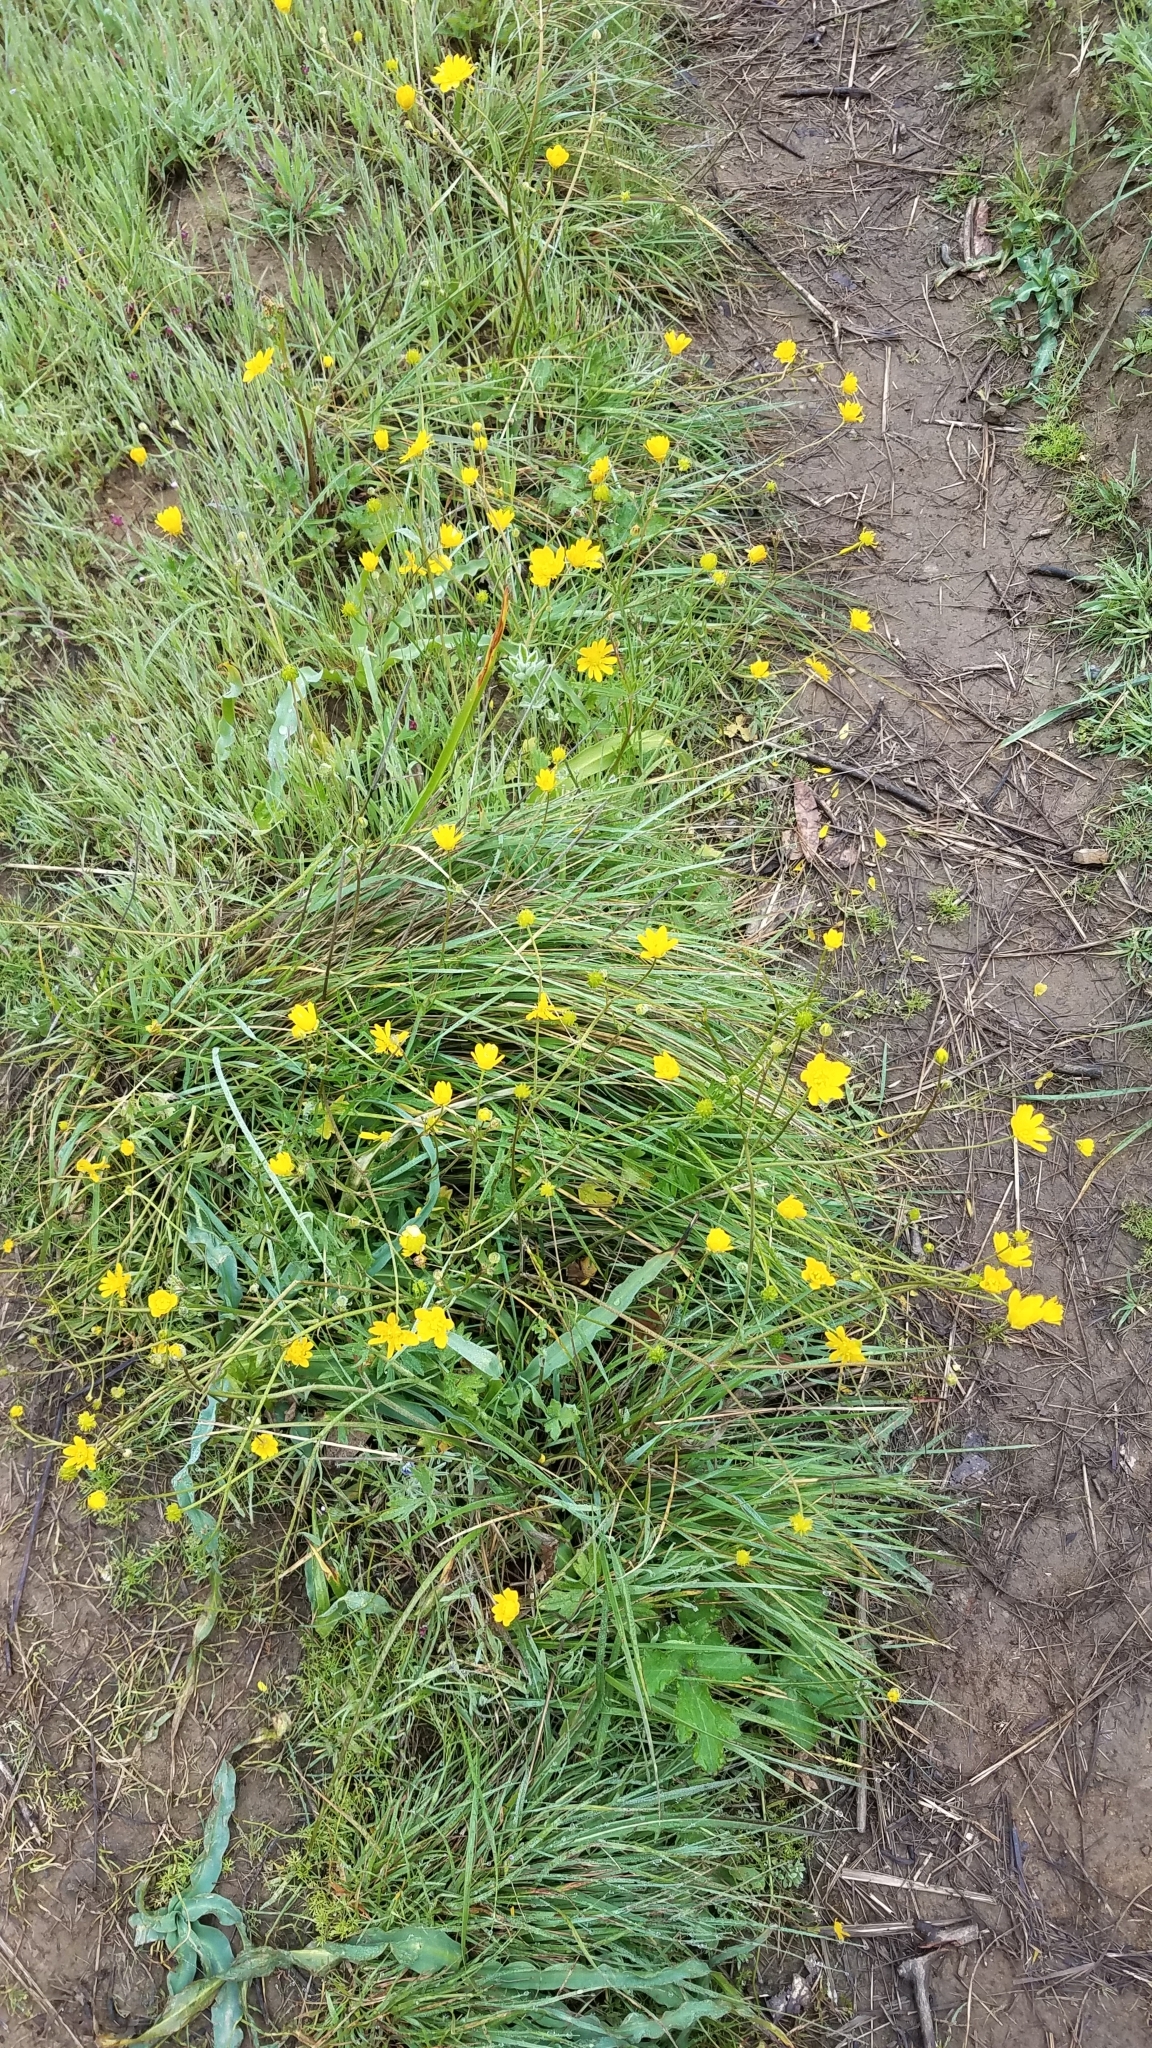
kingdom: Plantae
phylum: Tracheophyta
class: Magnoliopsida
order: Ranunculales
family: Ranunculaceae
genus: Ranunculus
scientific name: Ranunculus californicus
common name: California buttercup
